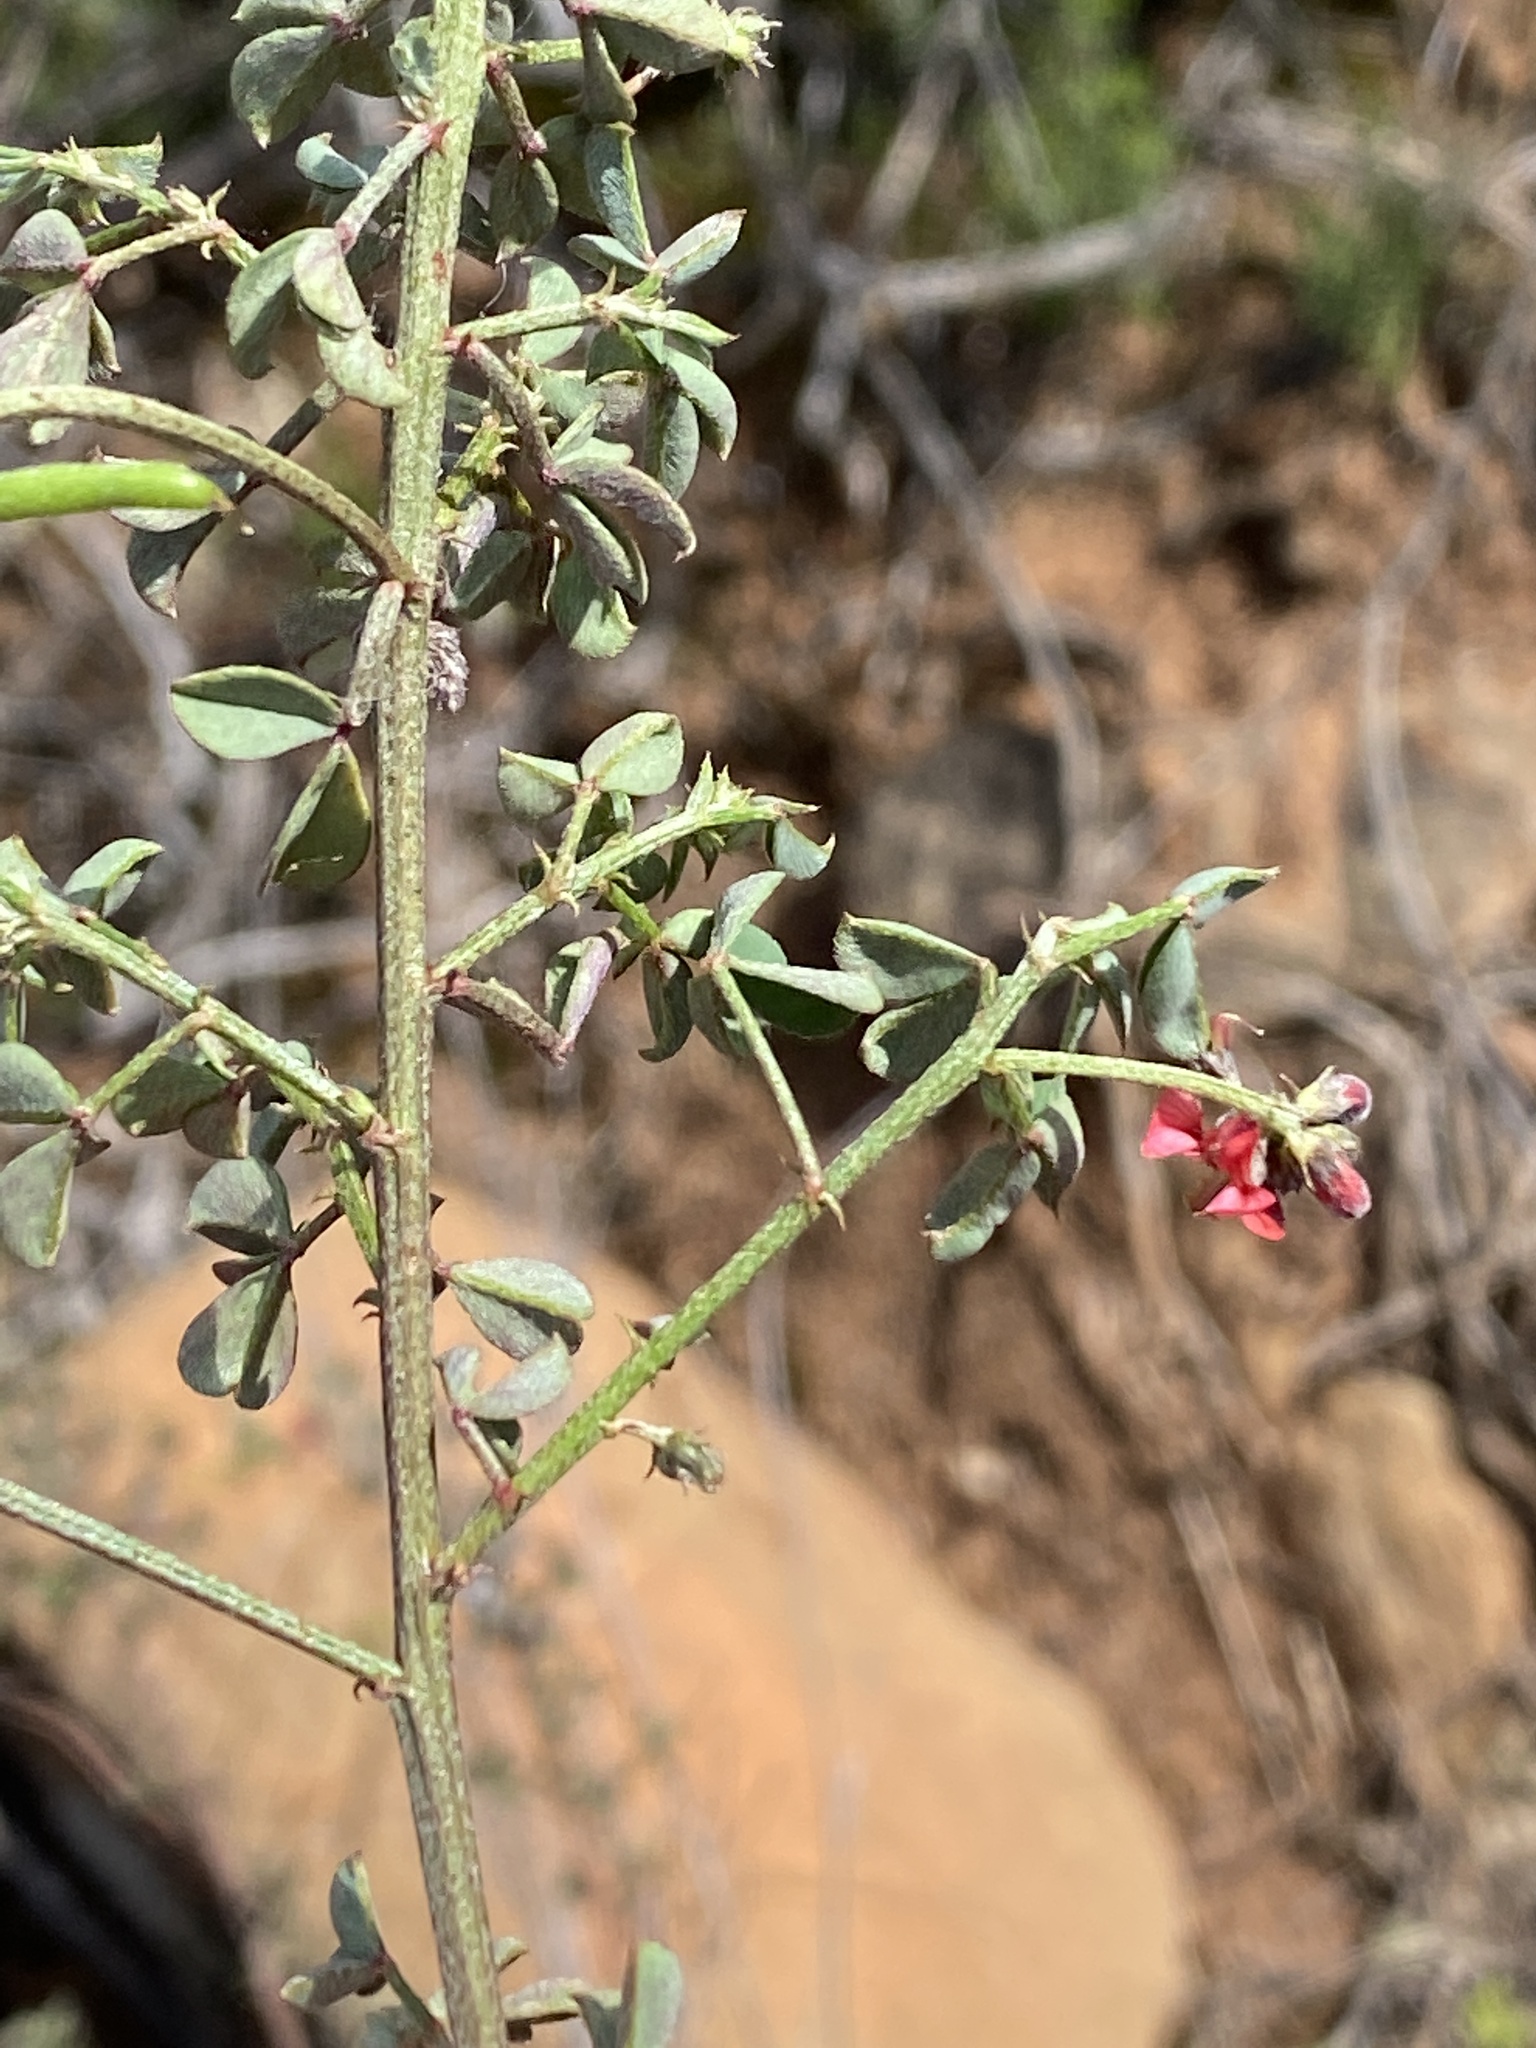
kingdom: Plantae
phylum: Tracheophyta
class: Magnoliopsida
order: Fabales
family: Fabaceae
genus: Indigofera
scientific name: Indigofera heterophylla
